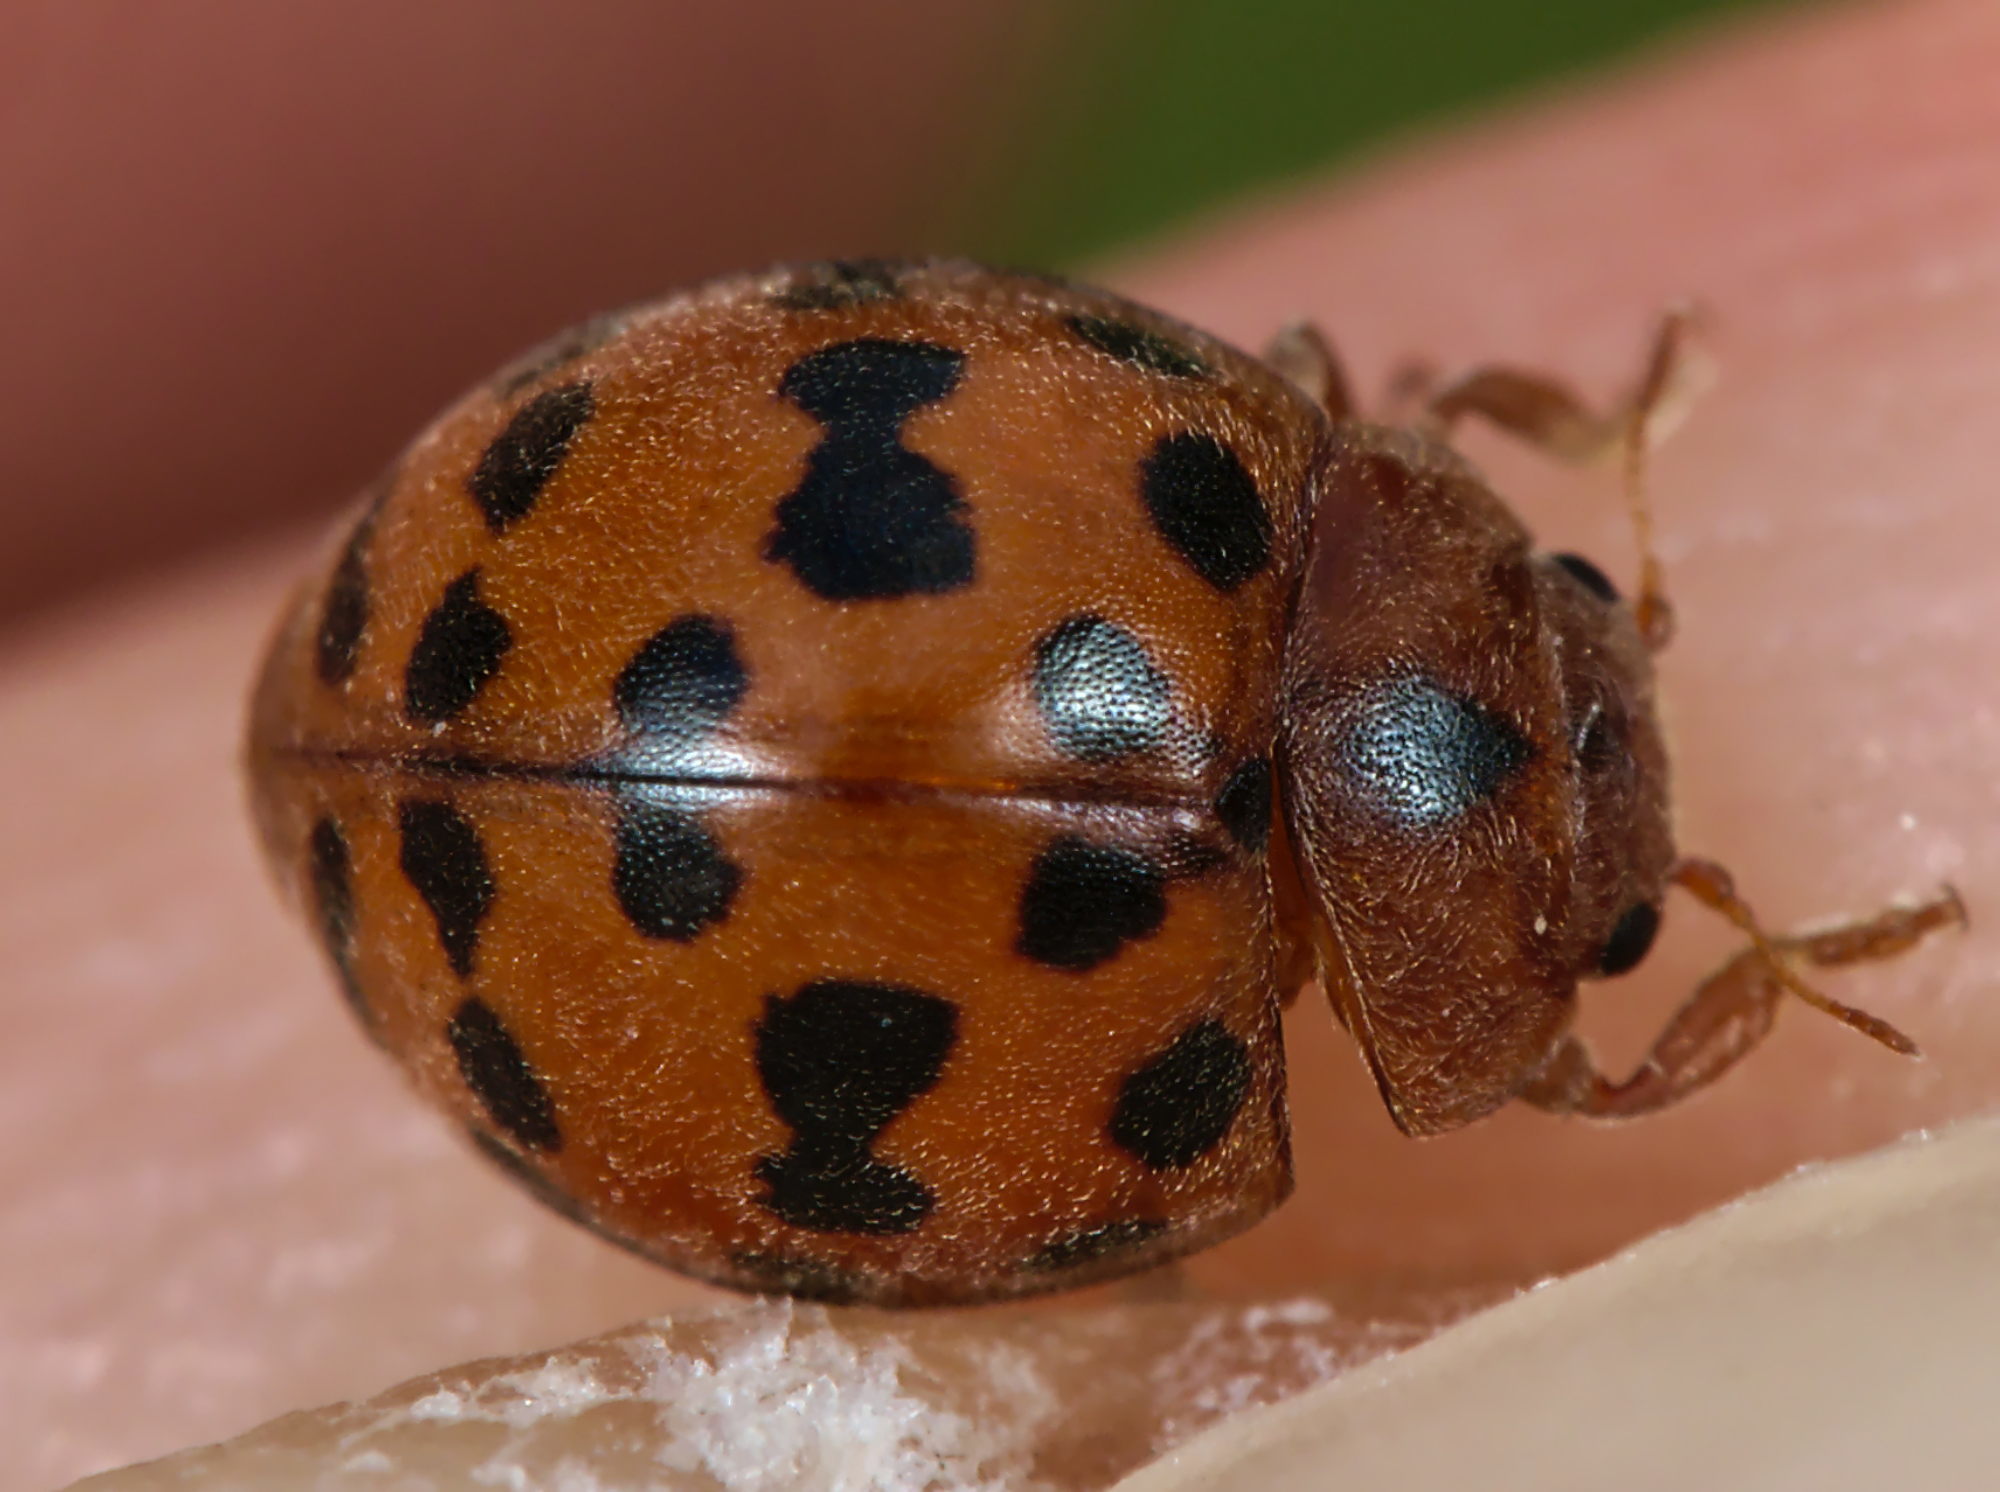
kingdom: Animalia
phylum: Arthropoda
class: Insecta
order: Coleoptera
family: Coccinellidae
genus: Subcoccinella
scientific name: Subcoccinella vigintiquatuorpunctata
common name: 24-spot ladybird
